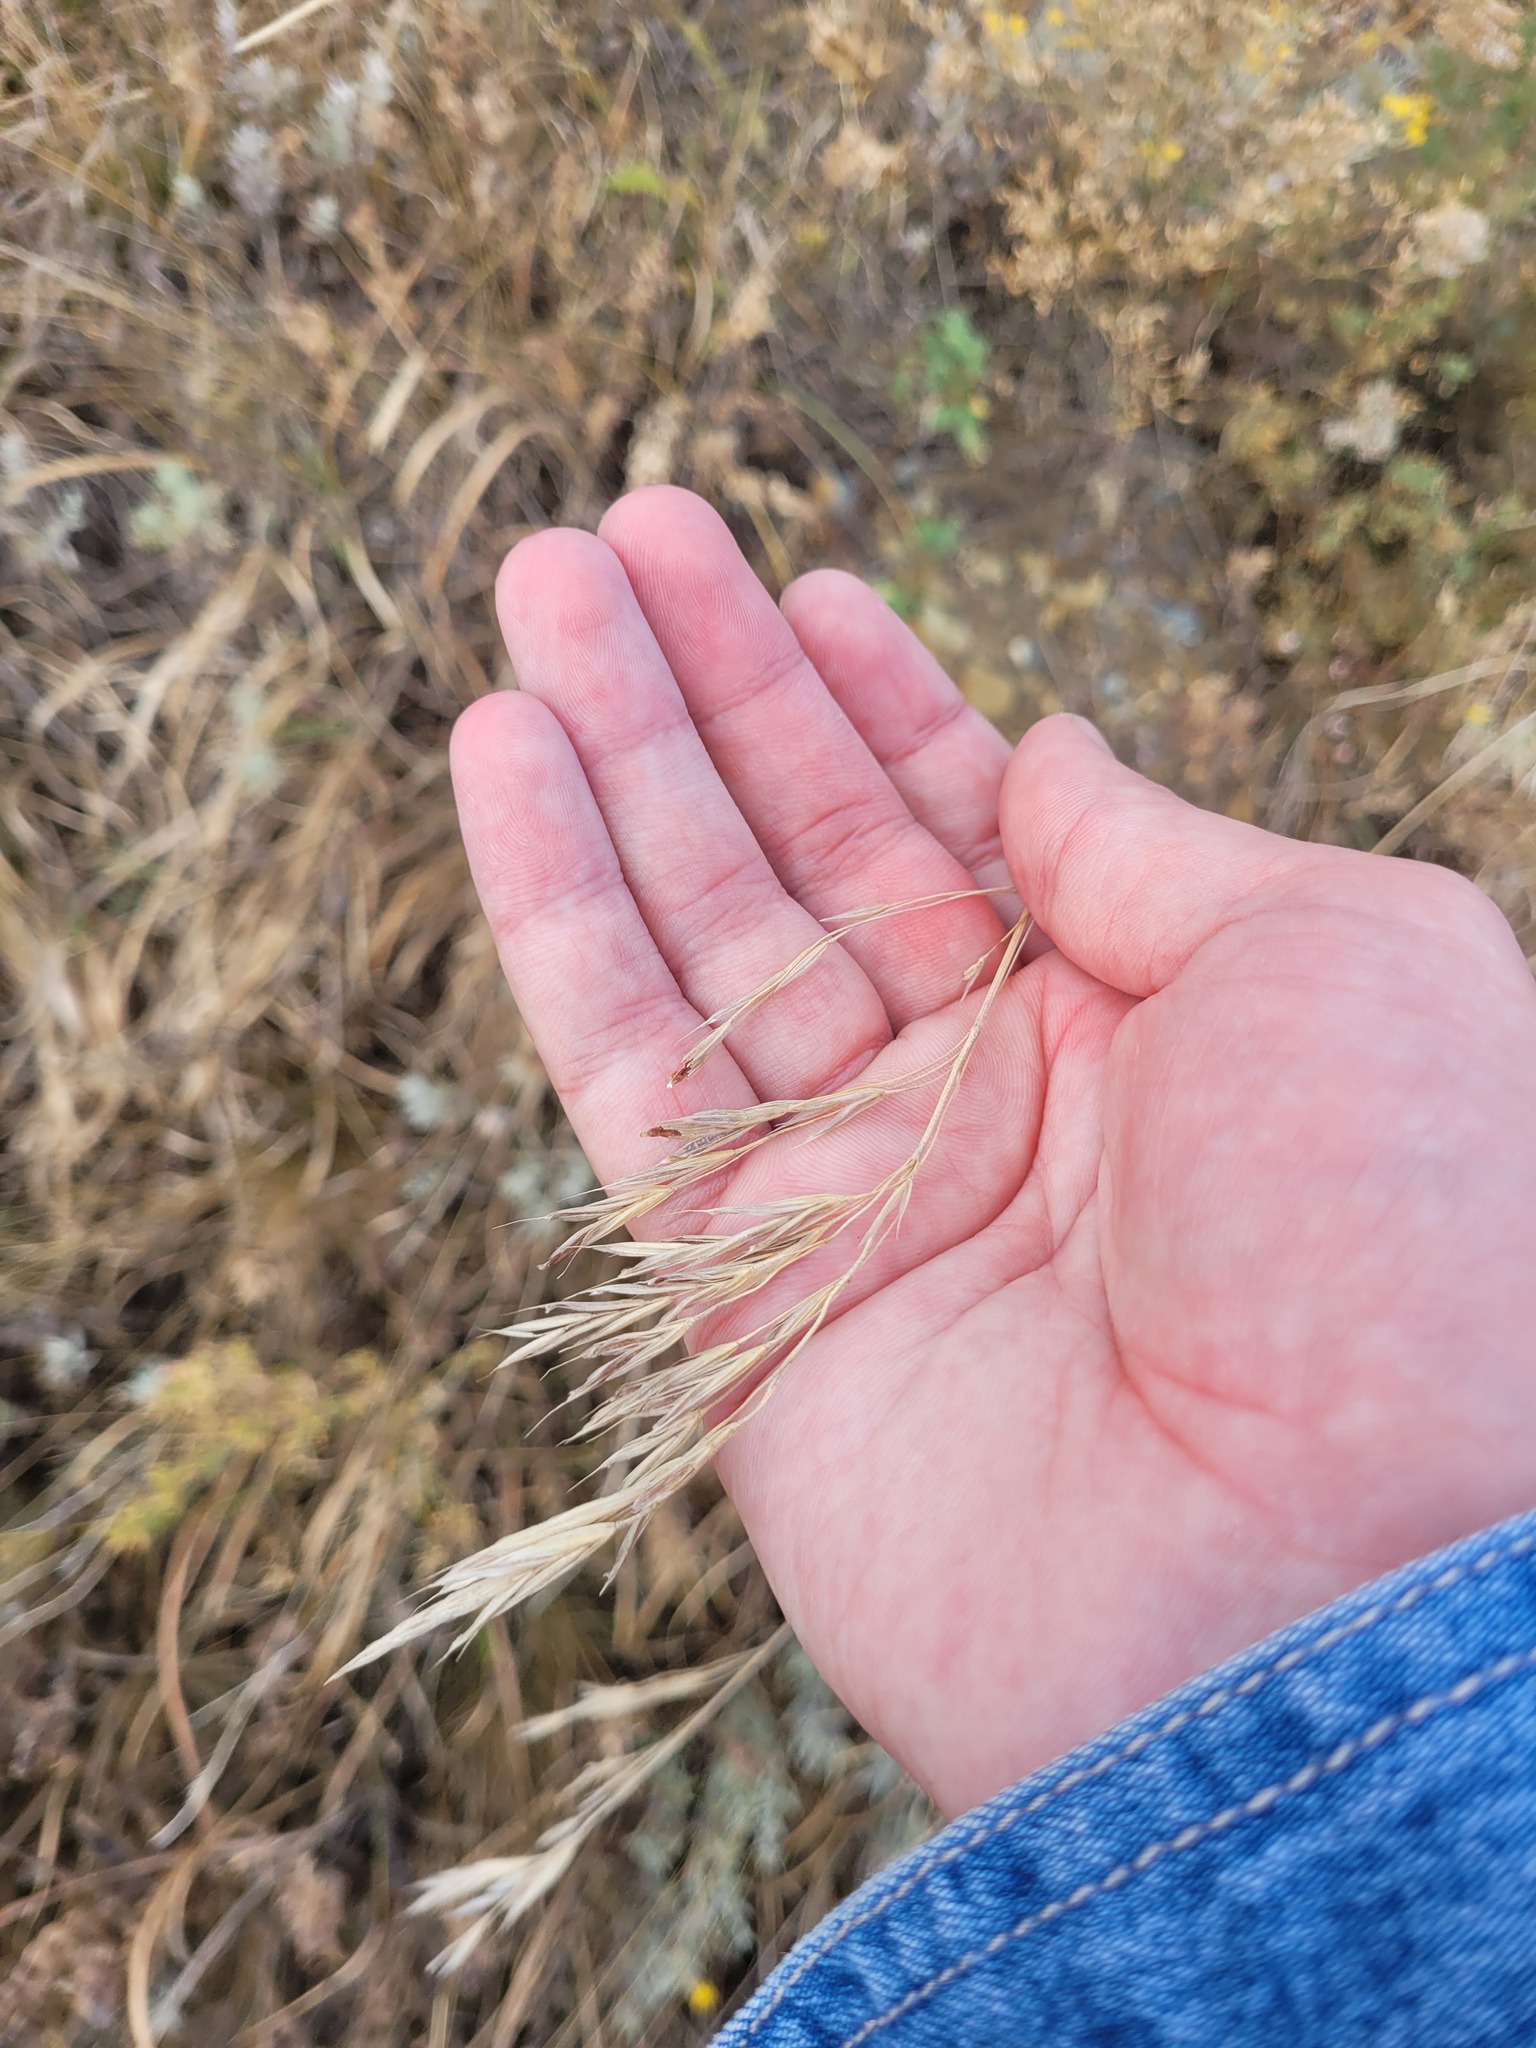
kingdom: Plantae
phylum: Tracheophyta
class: Liliopsida
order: Poales
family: Poaceae
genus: Bromus
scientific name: Bromus riparius
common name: Meadow brome
